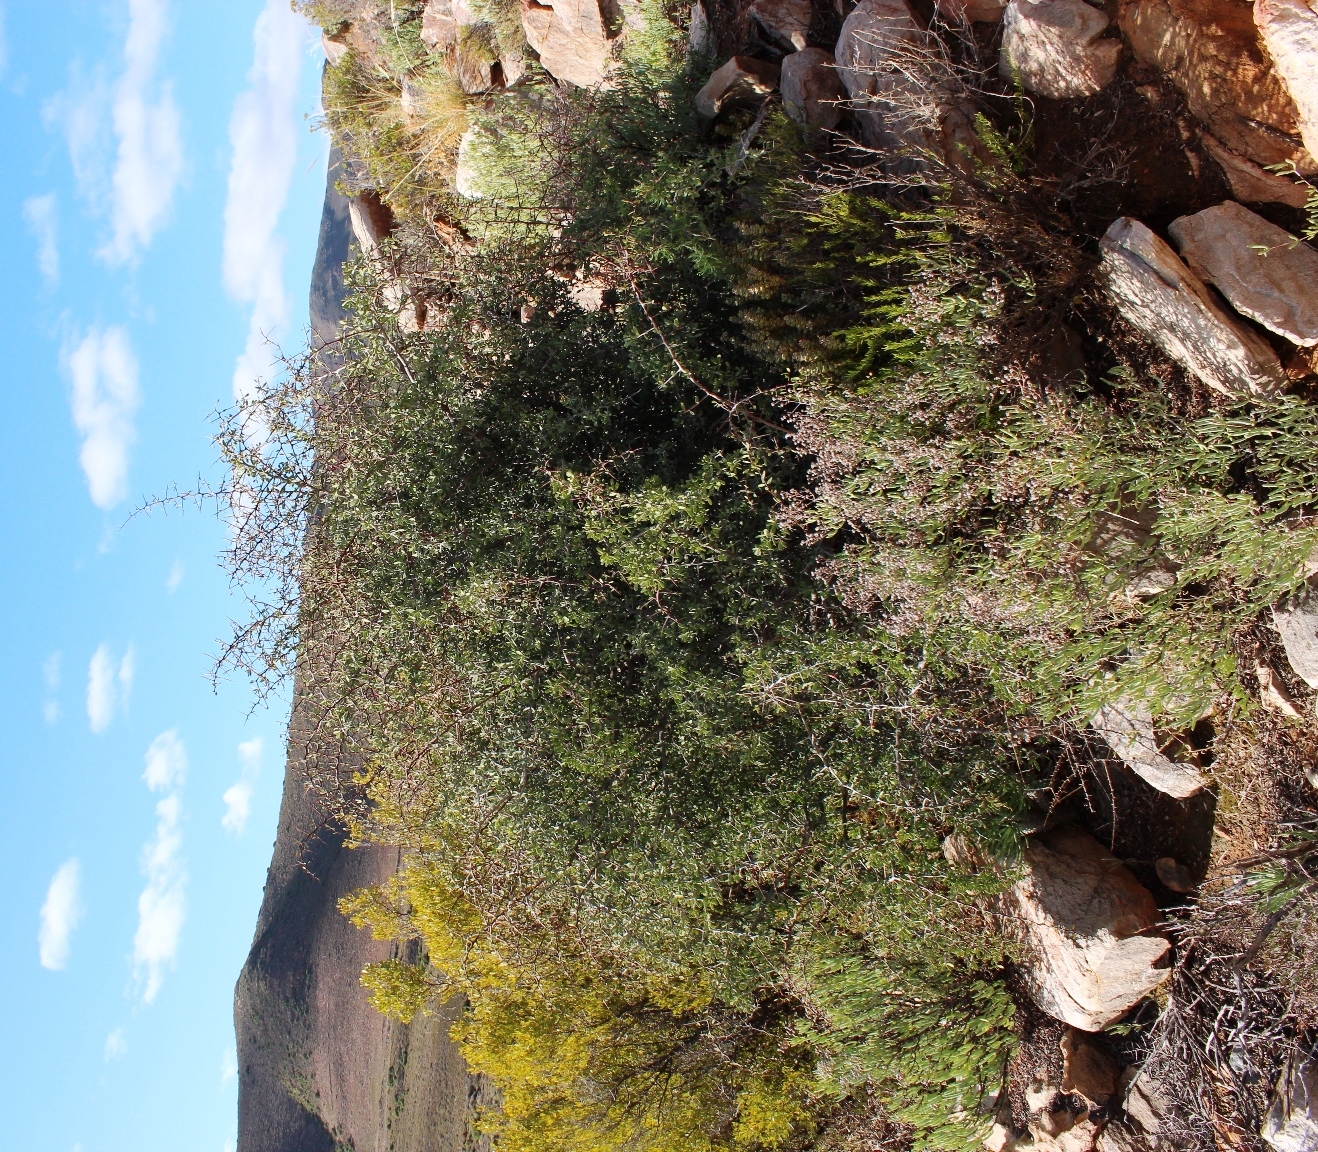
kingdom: Plantae
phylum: Tracheophyta
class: Magnoliopsida
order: Celastrales
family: Celastraceae
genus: Gloveria
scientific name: Gloveria integrifolia
